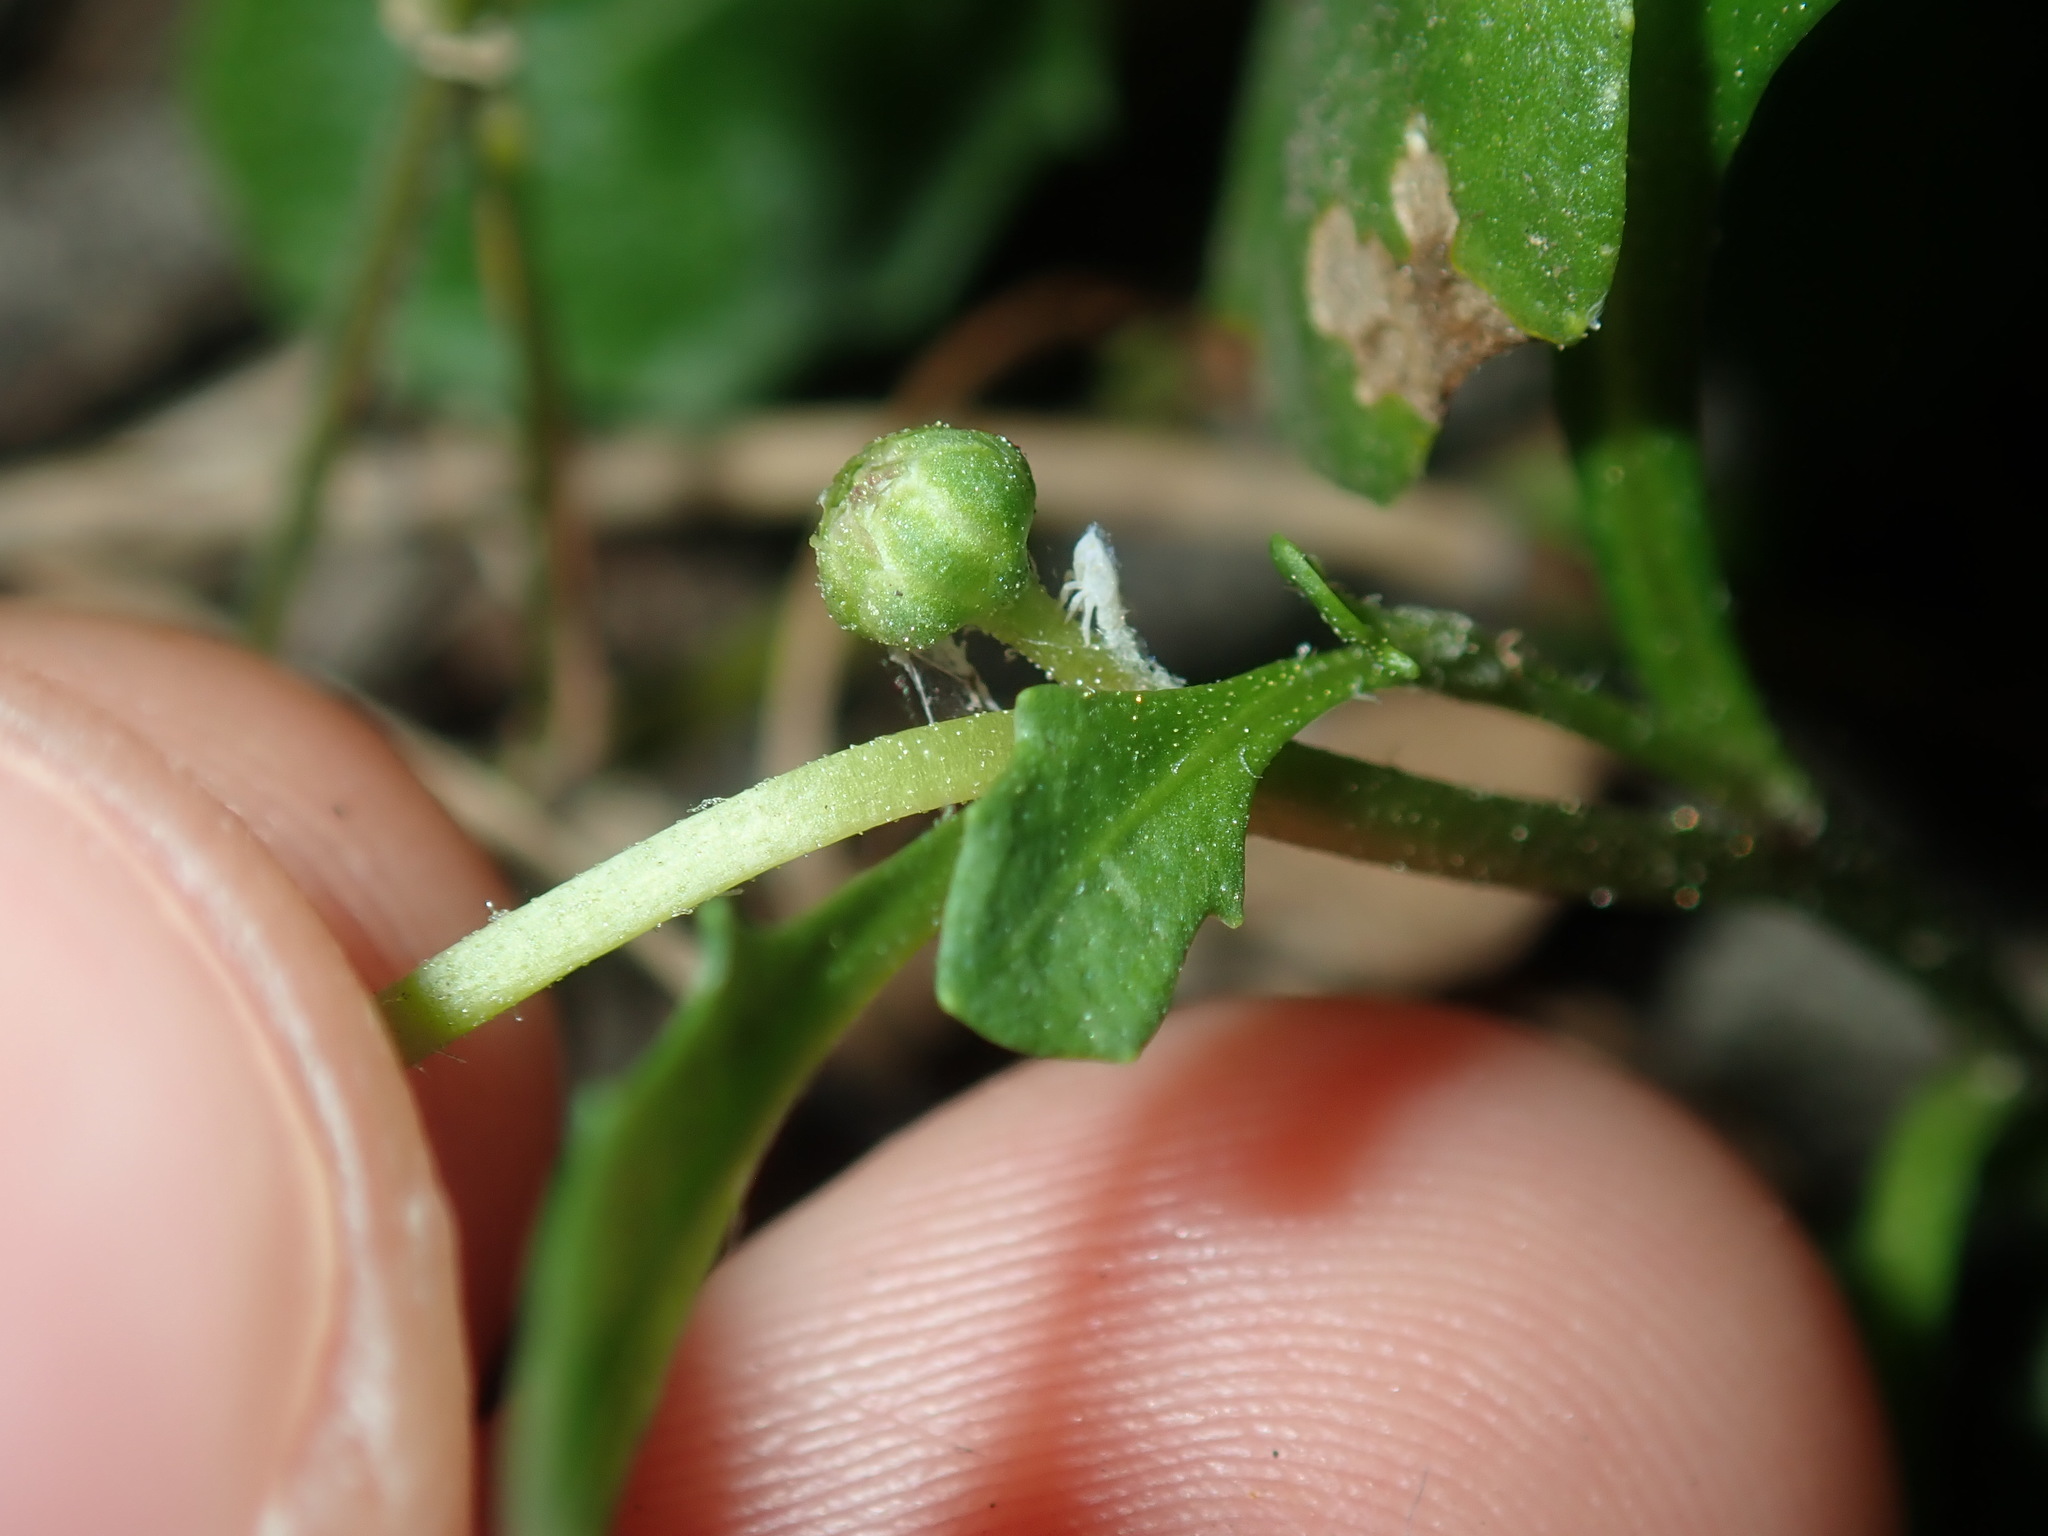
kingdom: Plantae
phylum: Tracheophyta
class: Magnoliopsida
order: Asterales
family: Asteraceae
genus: Sphaeromorphaea
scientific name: Sphaeromorphaea australis
